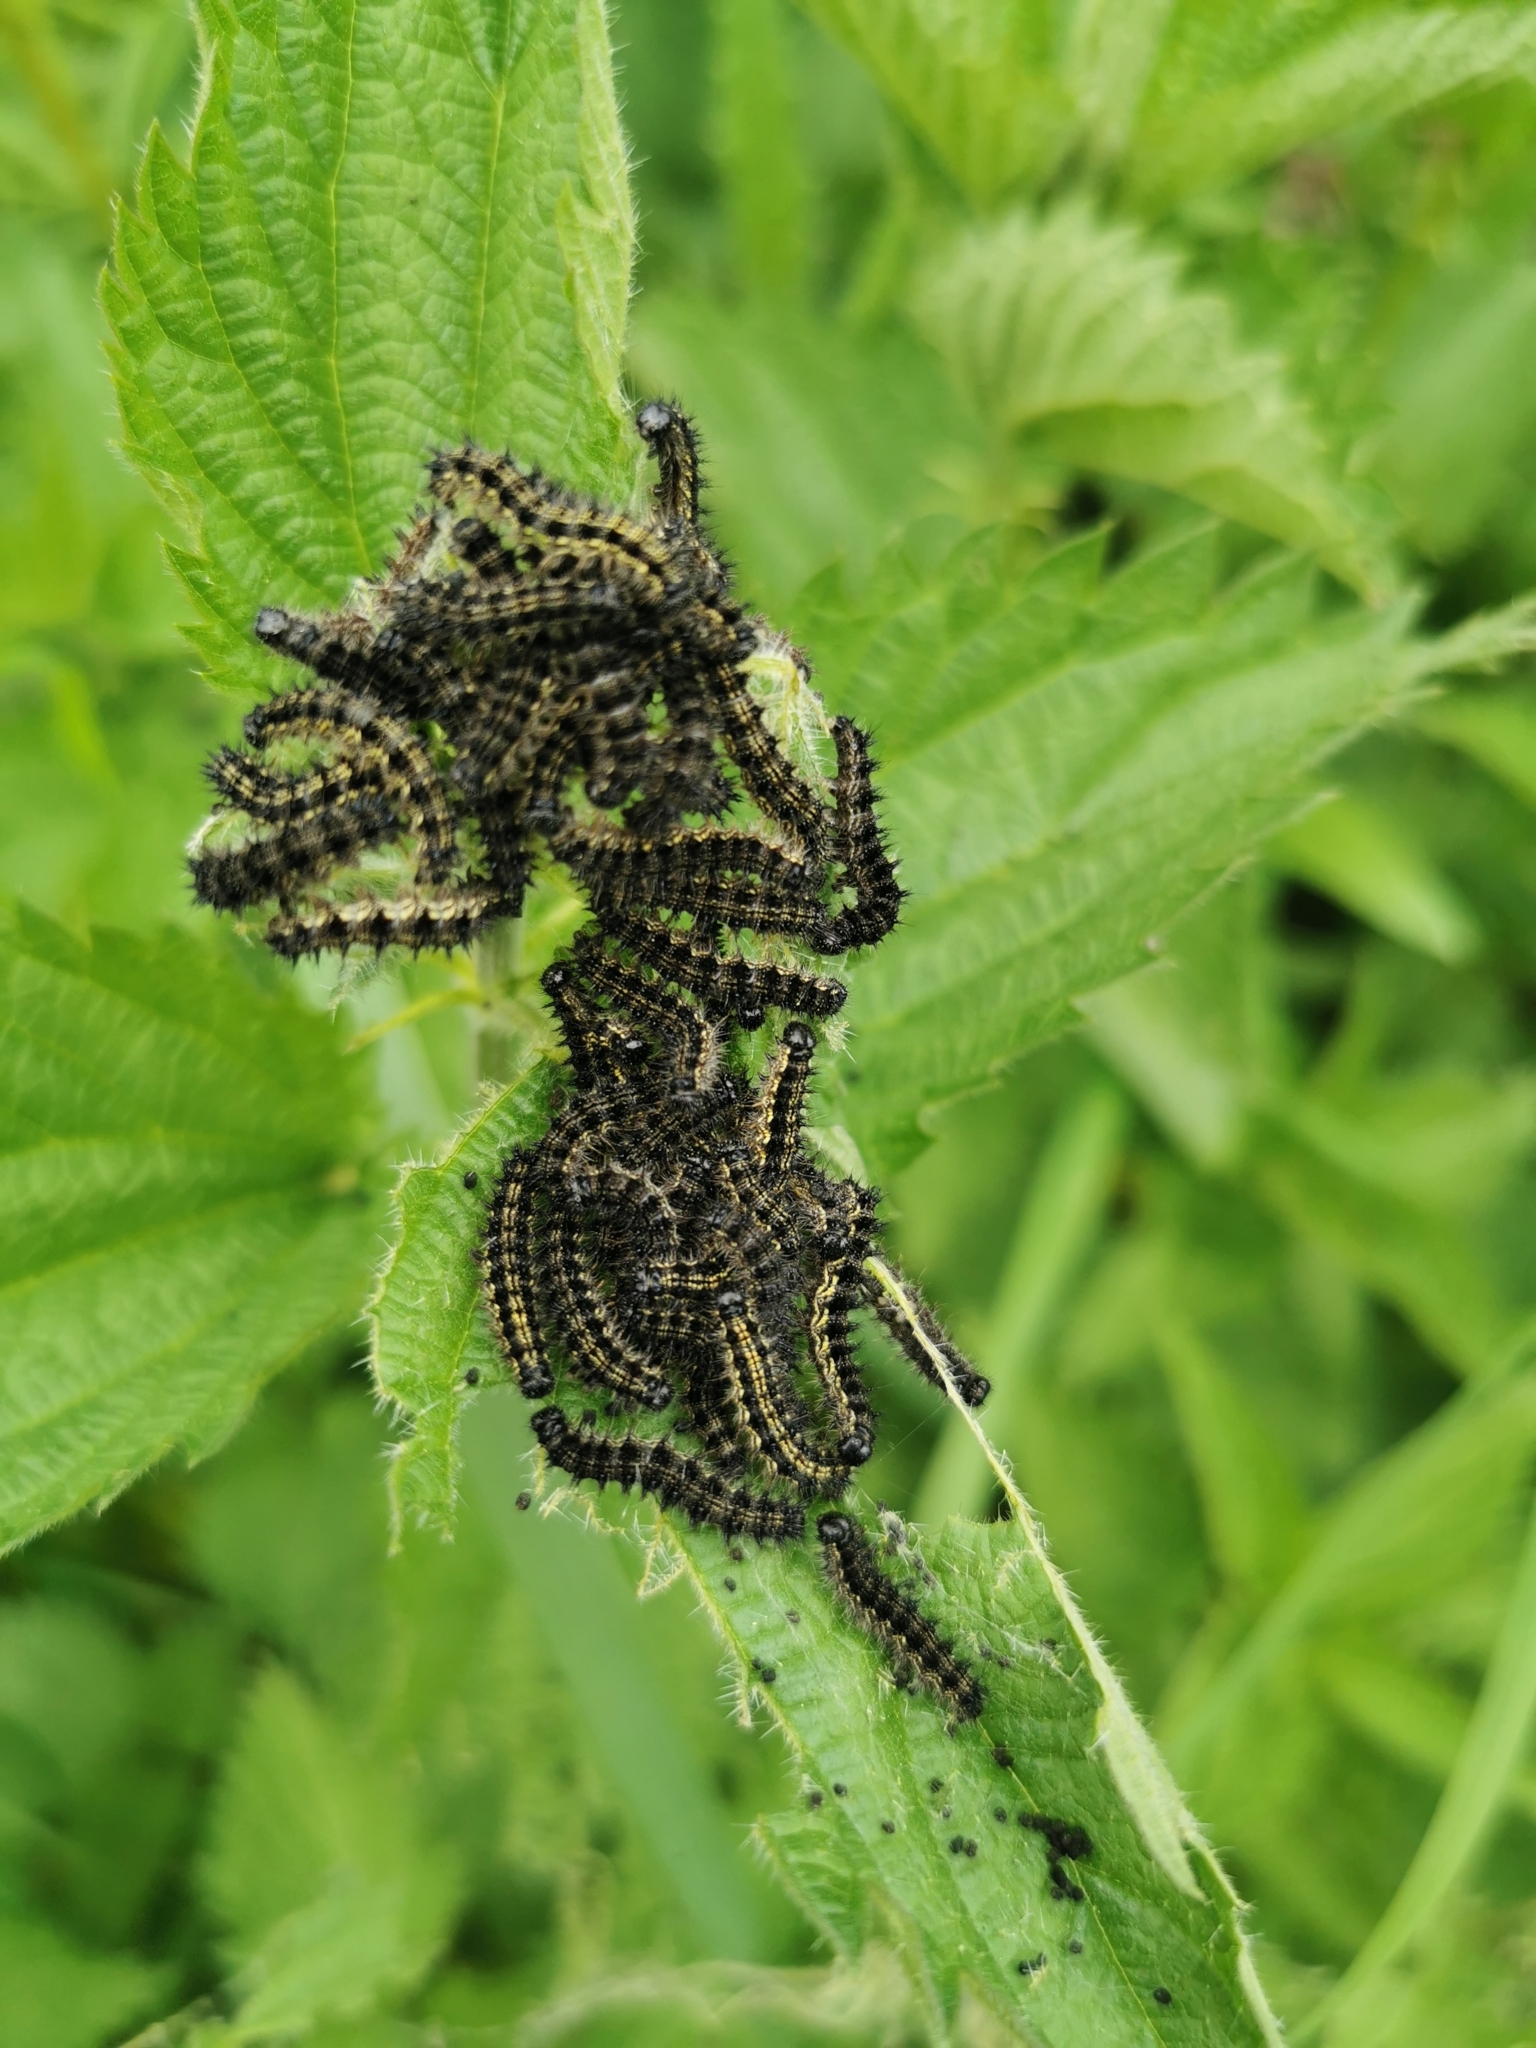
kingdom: Animalia
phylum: Arthropoda
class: Insecta
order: Lepidoptera
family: Nymphalidae
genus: Aglais
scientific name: Aglais urticae
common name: Small tortoiseshell
